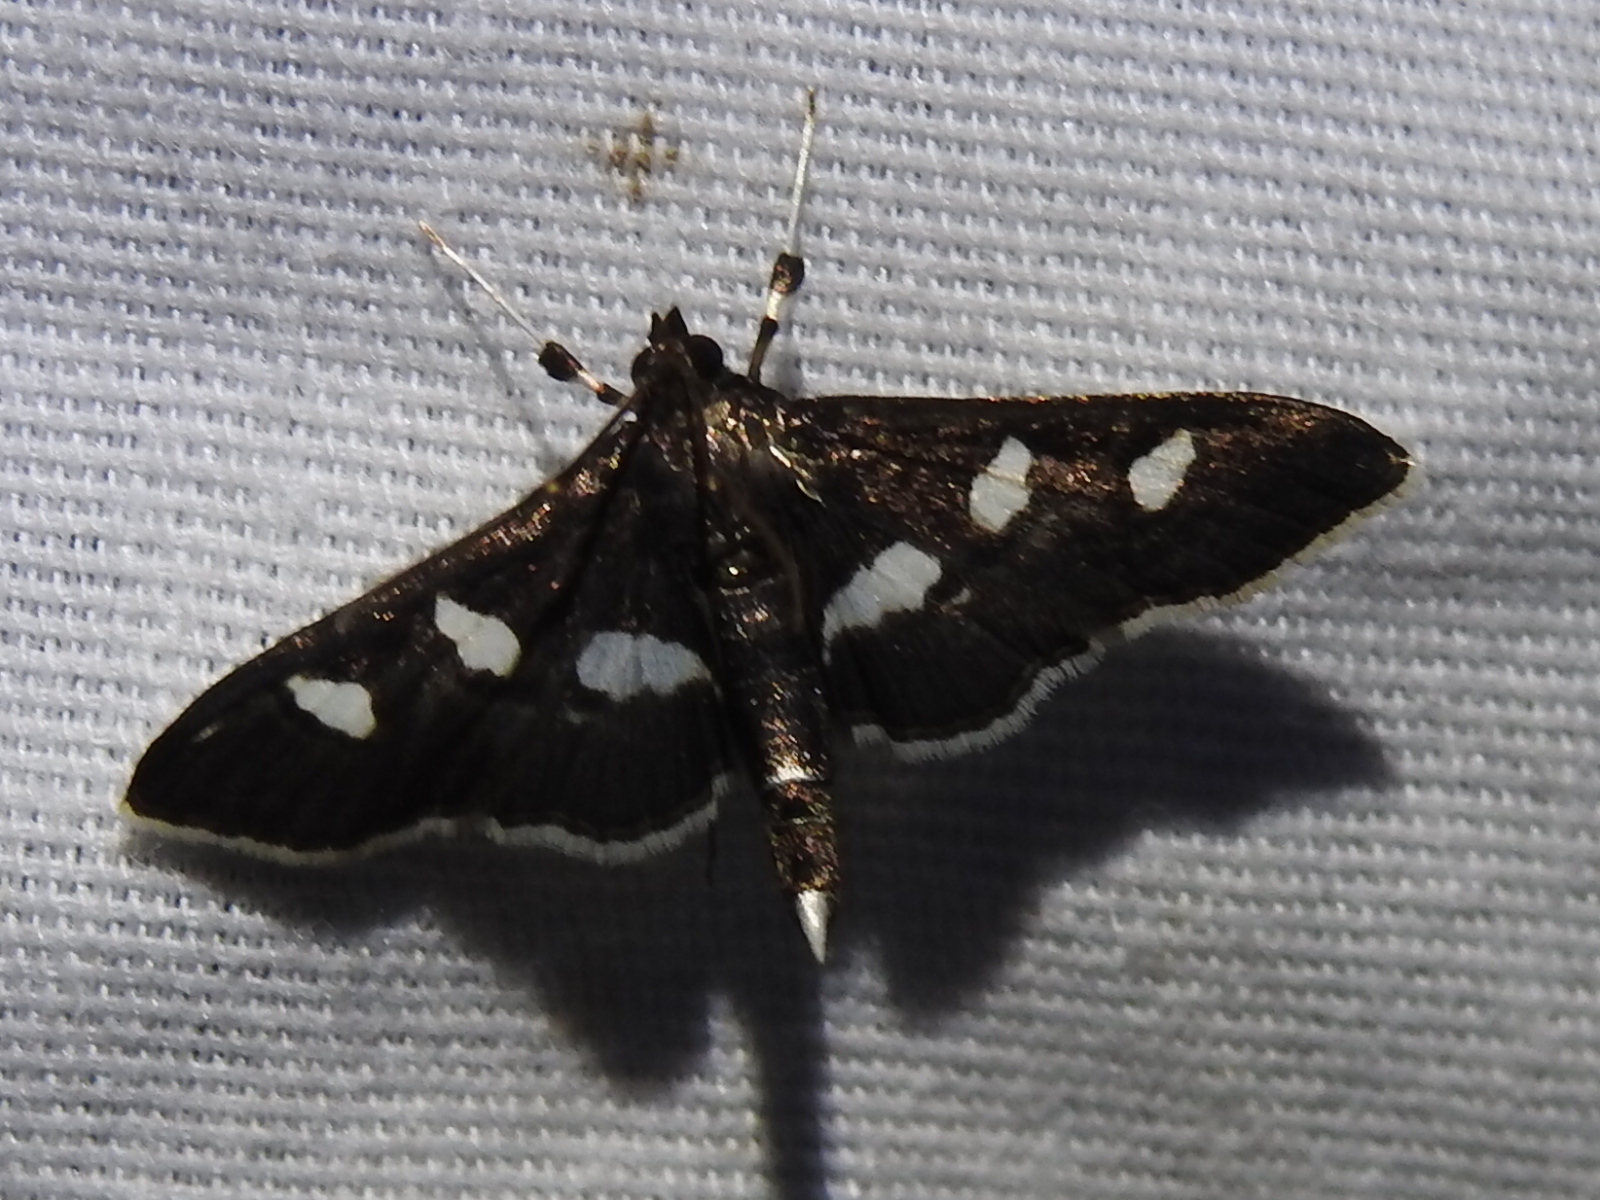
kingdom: Animalia
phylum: Arthropoda
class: Insecta
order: Lepidoptera
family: Crambidae
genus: Desmia
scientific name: Desmia
